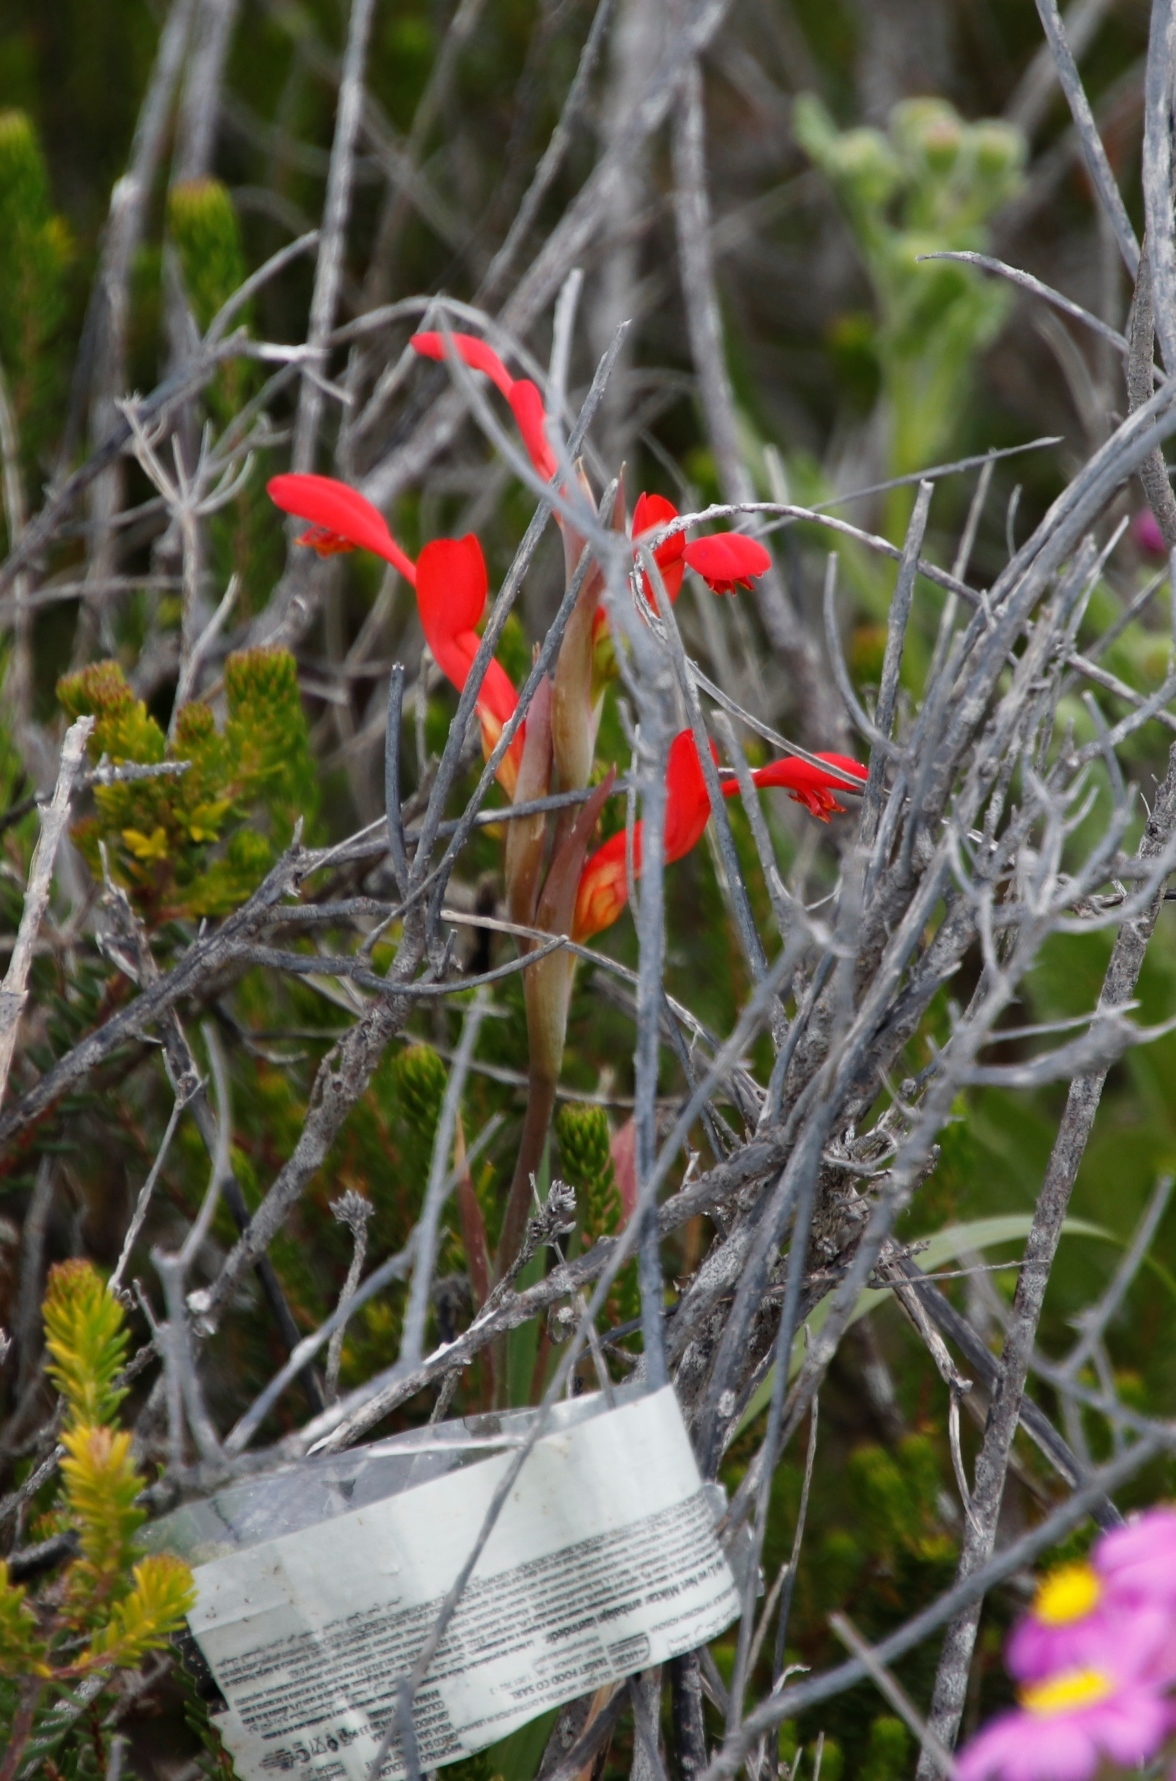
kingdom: Plantae
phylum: Tracheophyta
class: Liliopsida
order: Asparagales
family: Iridaceae
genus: Gladiolus
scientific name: Gladiolus cunonius
